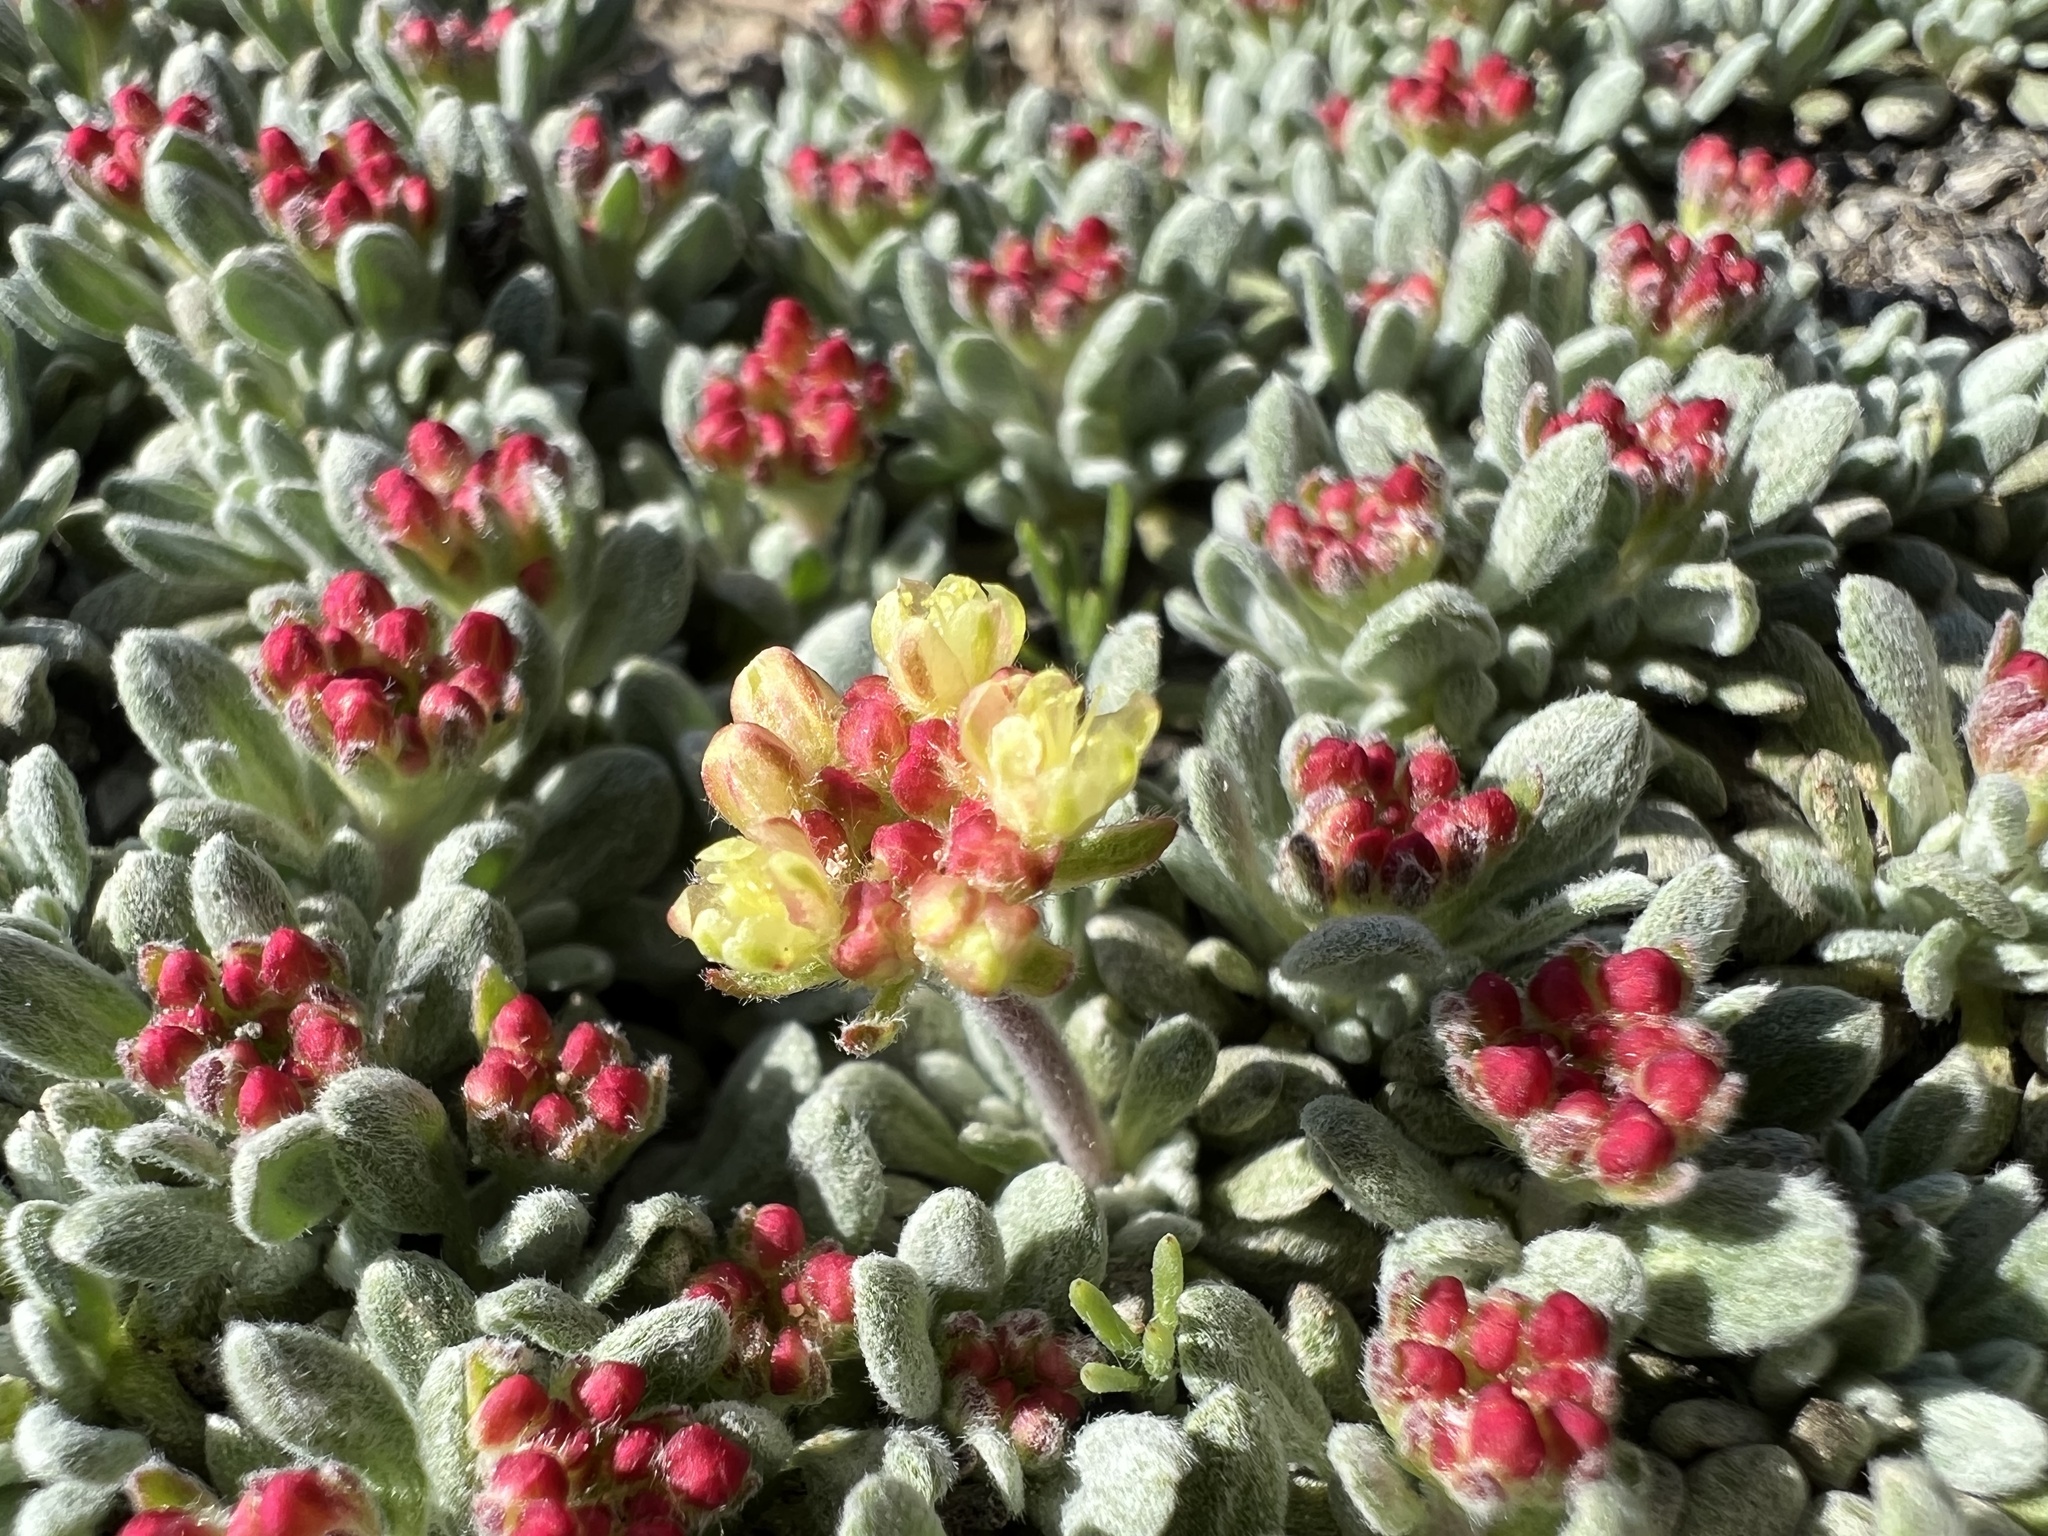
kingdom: Plantae
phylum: Tracheophyta
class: Magnoliopsida
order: Caryophyllales
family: Polygonaceae
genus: Eriogonum
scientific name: Eriogonum caespitosum
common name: Matted wild buckwheat
